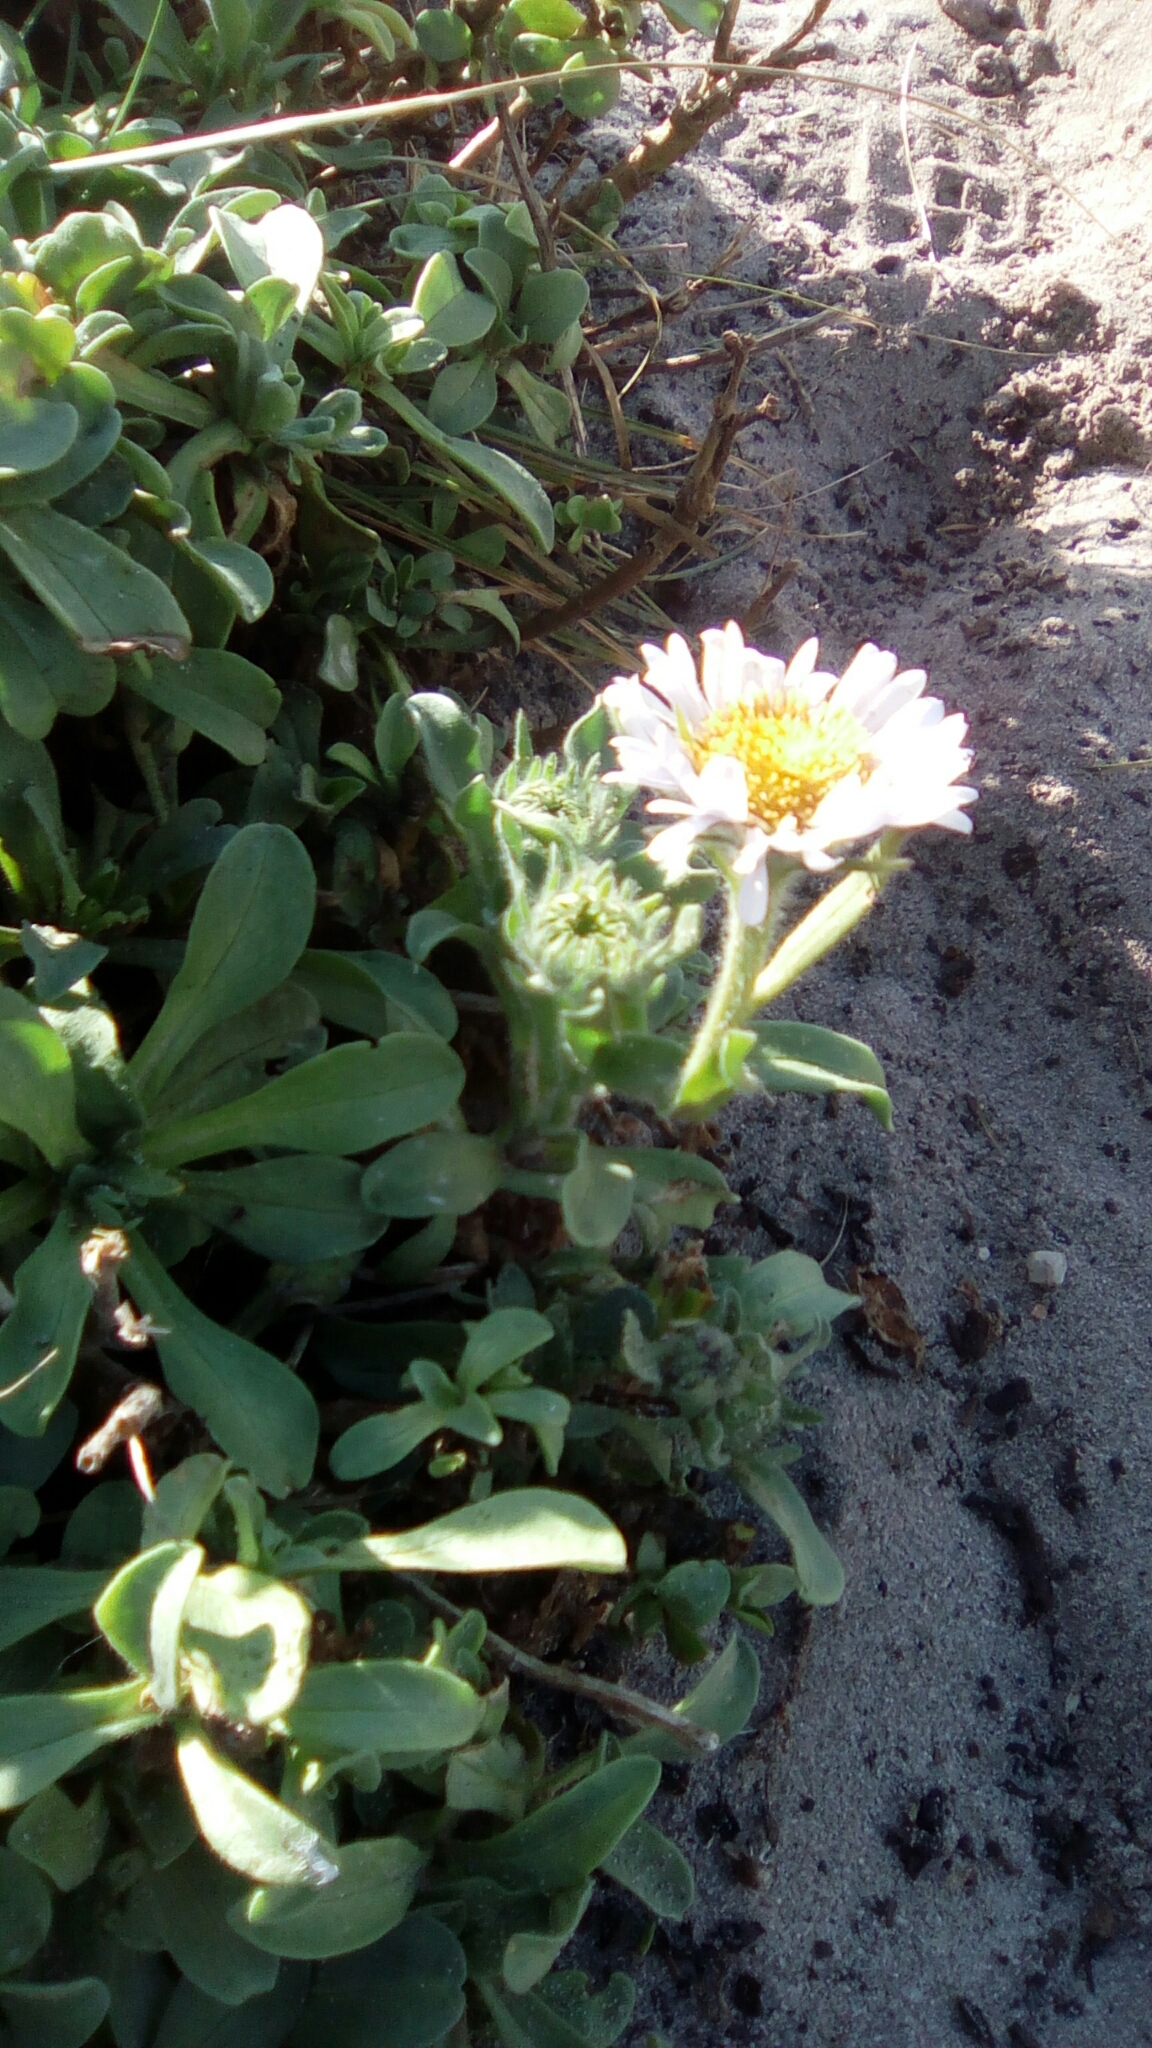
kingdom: Plantae
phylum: Tracheophyta
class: Magnoliopsida
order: Asterales
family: Asteraceae
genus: Erigeron
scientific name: Erigeron glaucus
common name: Seaside daisy
